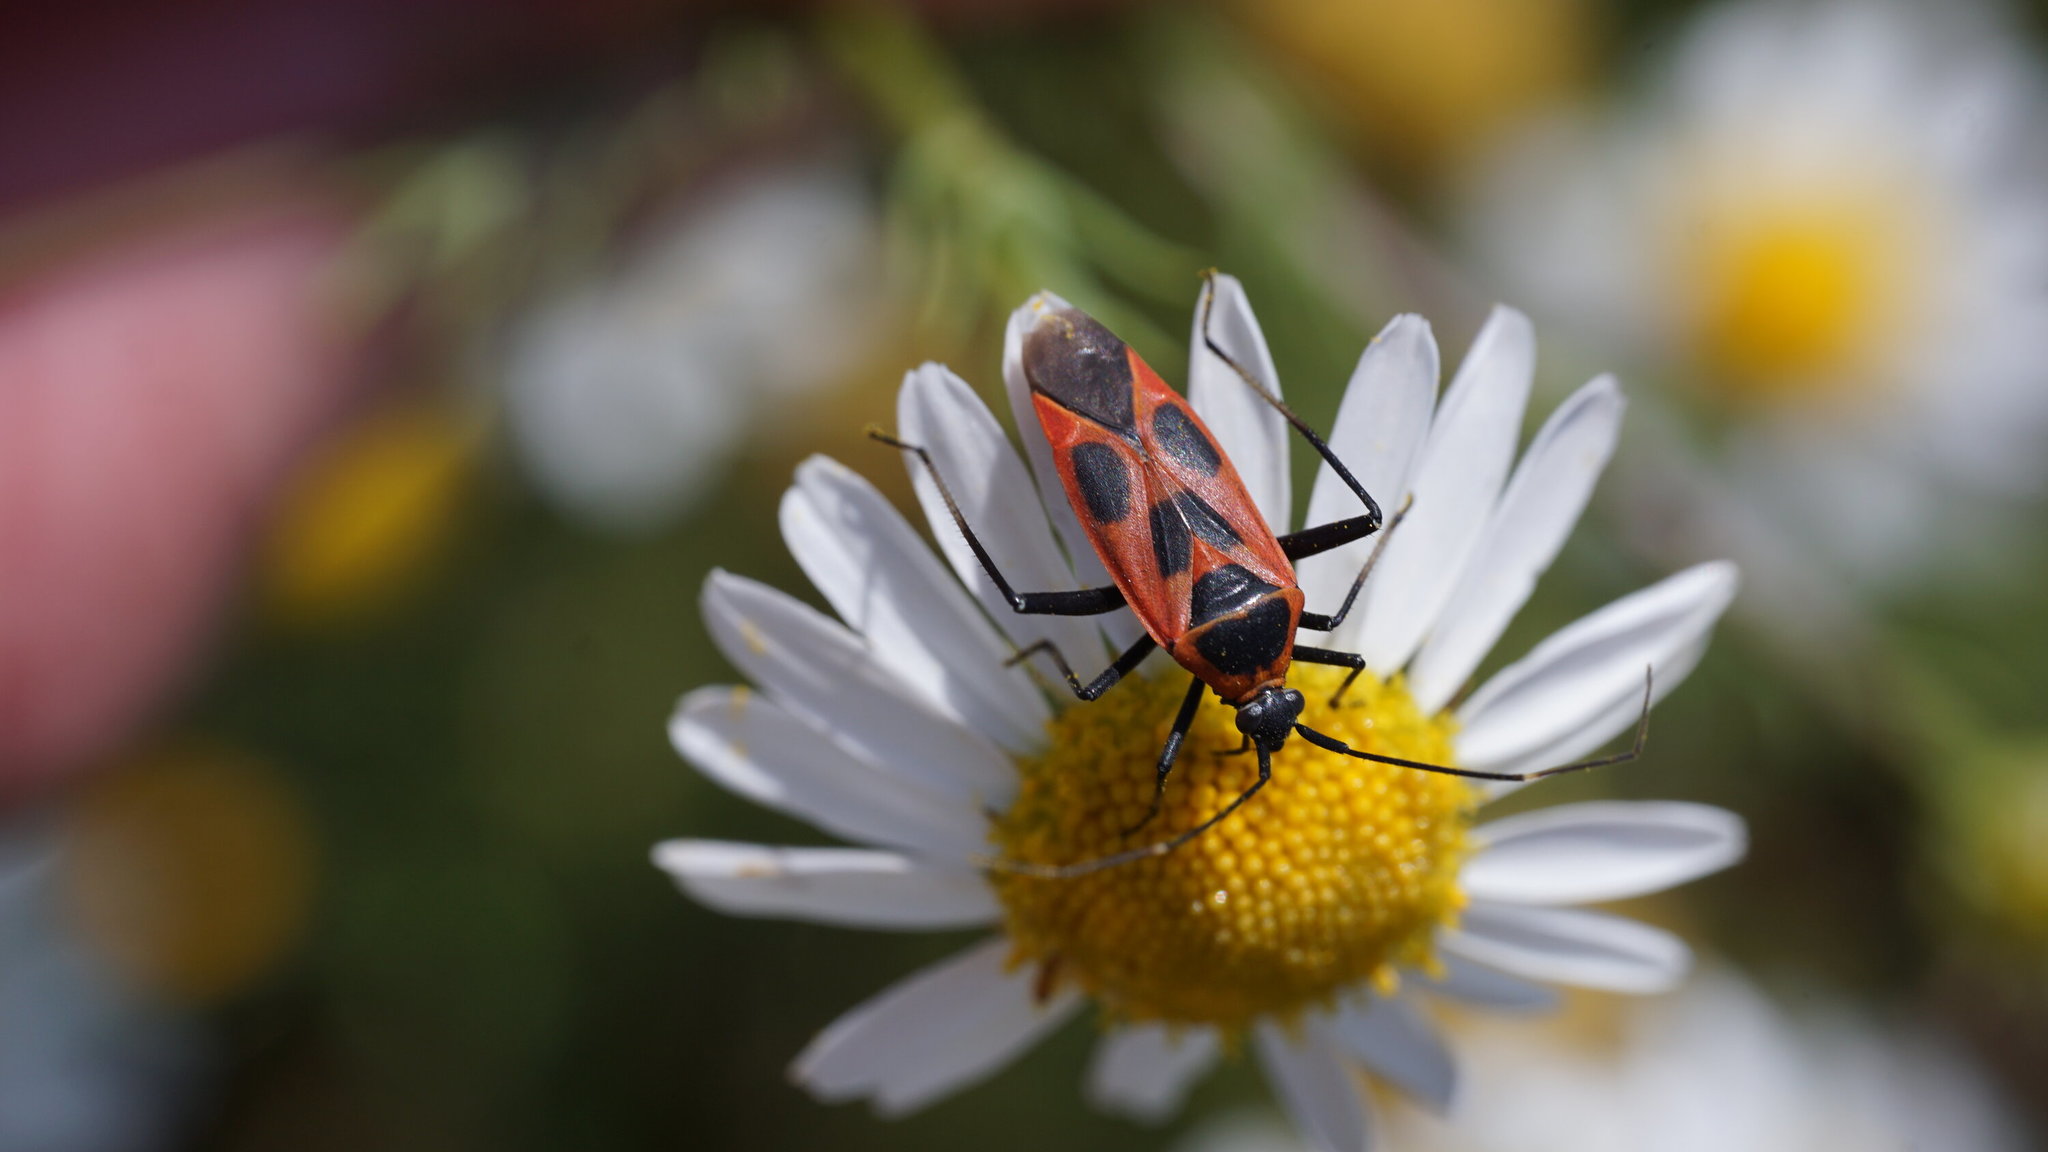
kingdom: Animalia
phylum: Arthropoda
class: Insecta
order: Hemiptera
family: Miridae
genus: Calocoris
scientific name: Calocoris nemoralis
